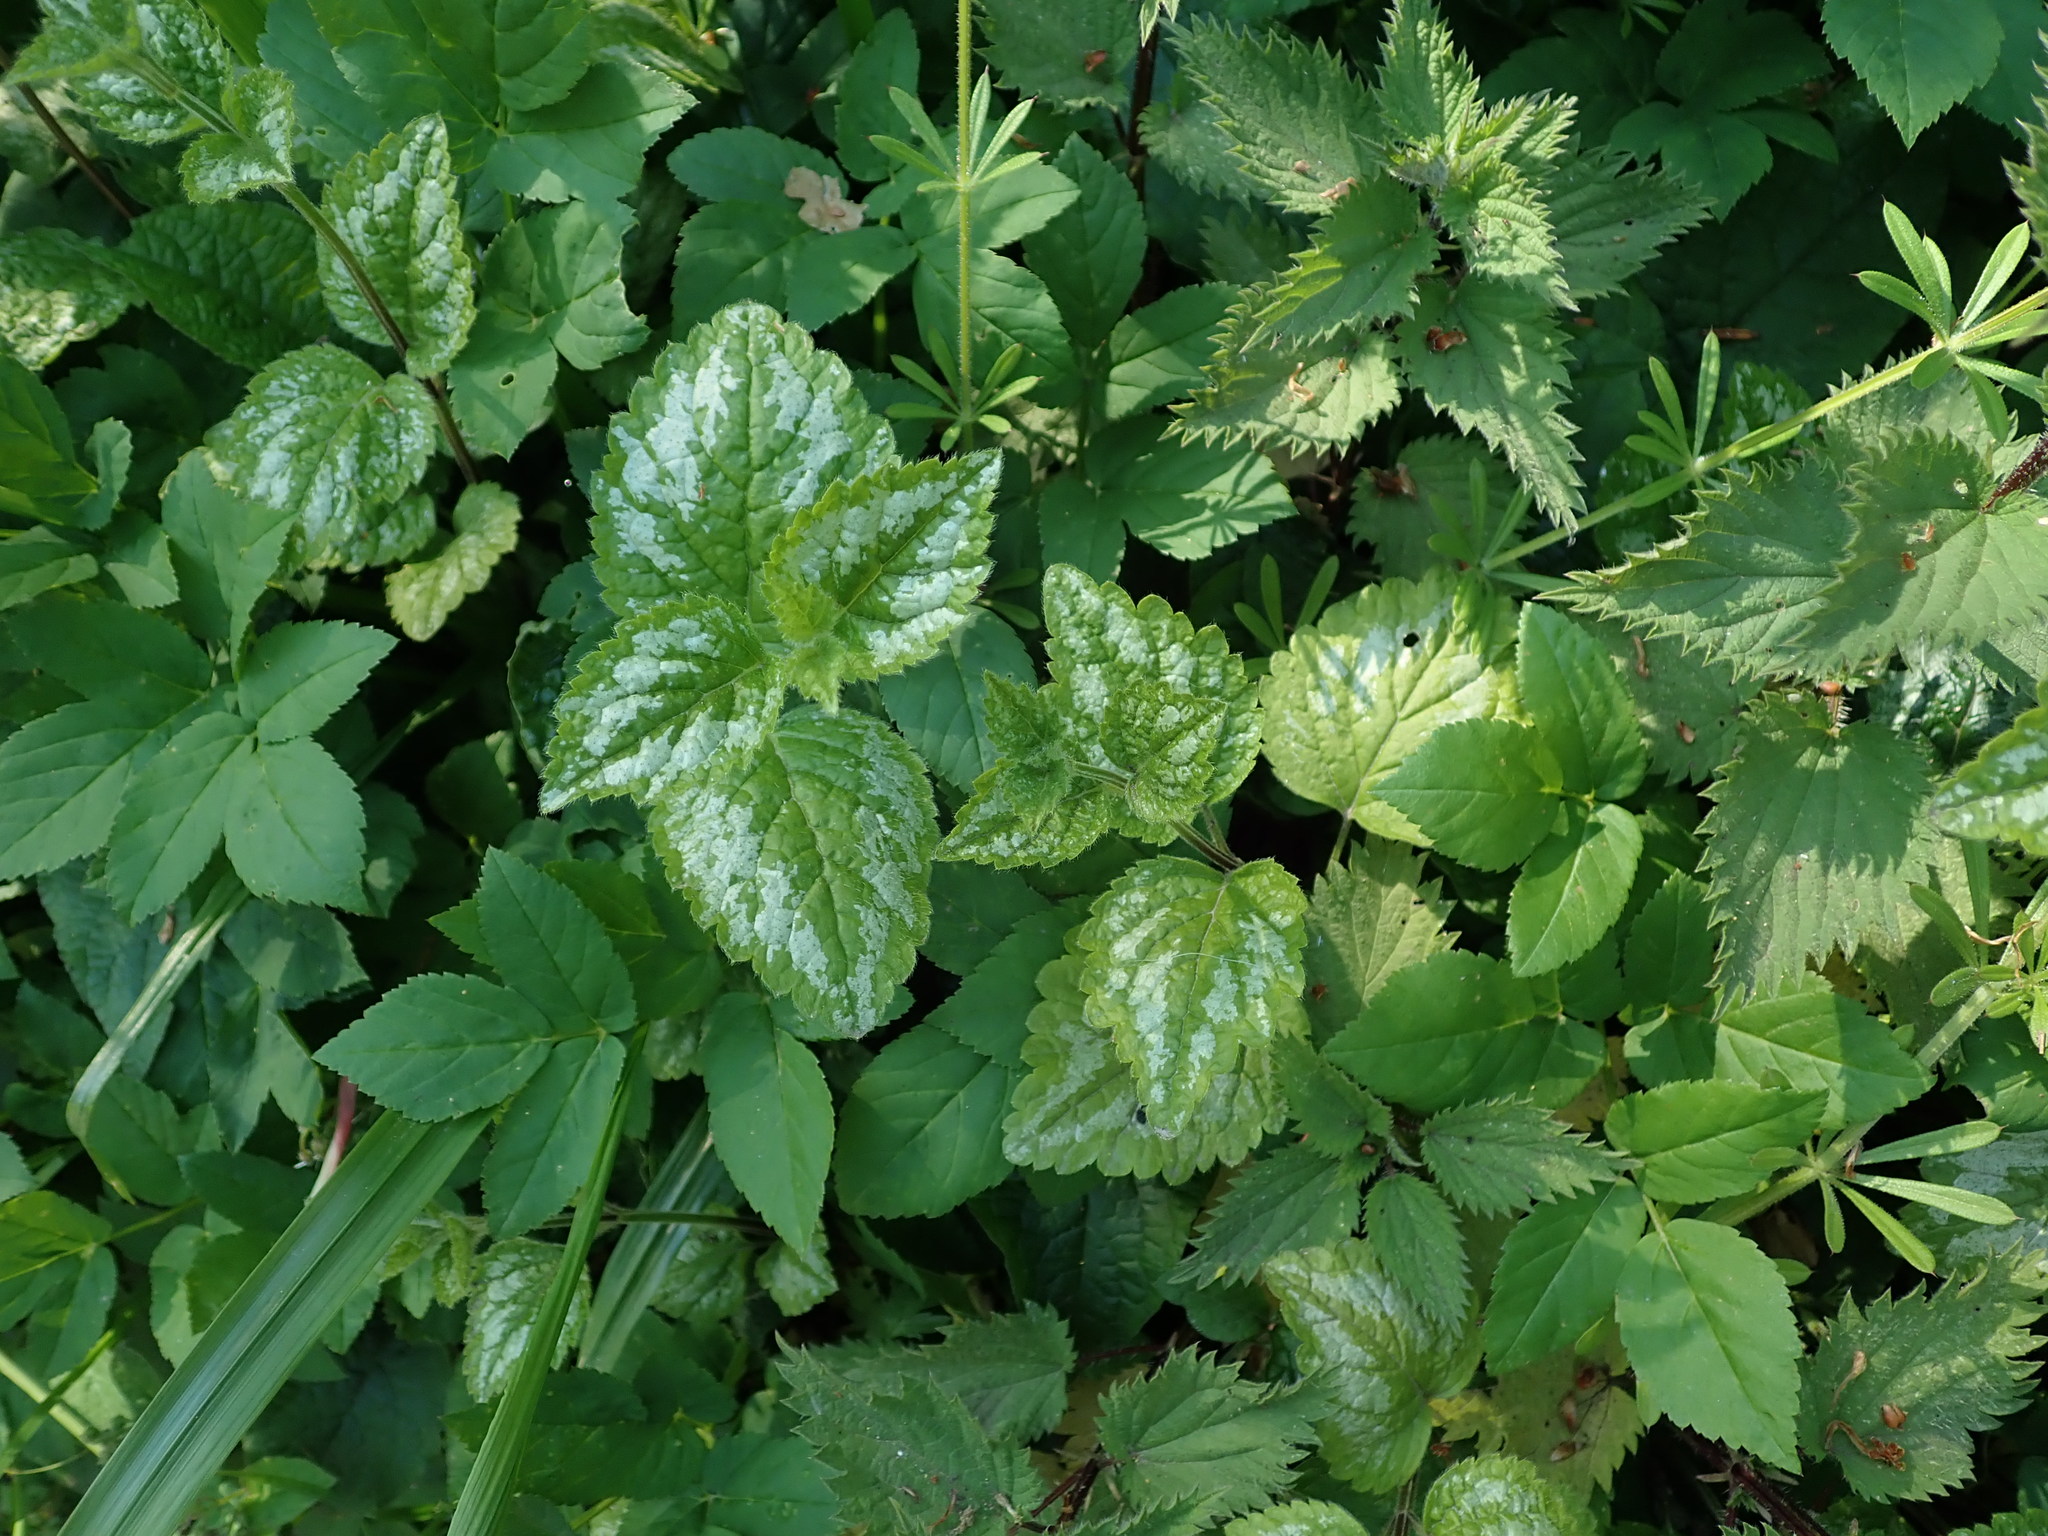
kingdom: Plantae
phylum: Tracheophyta
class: Magnoliopsida
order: Lamiales
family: Lamiaceae
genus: Lamium
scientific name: Lamium galeobdolon
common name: Yellow archangel
